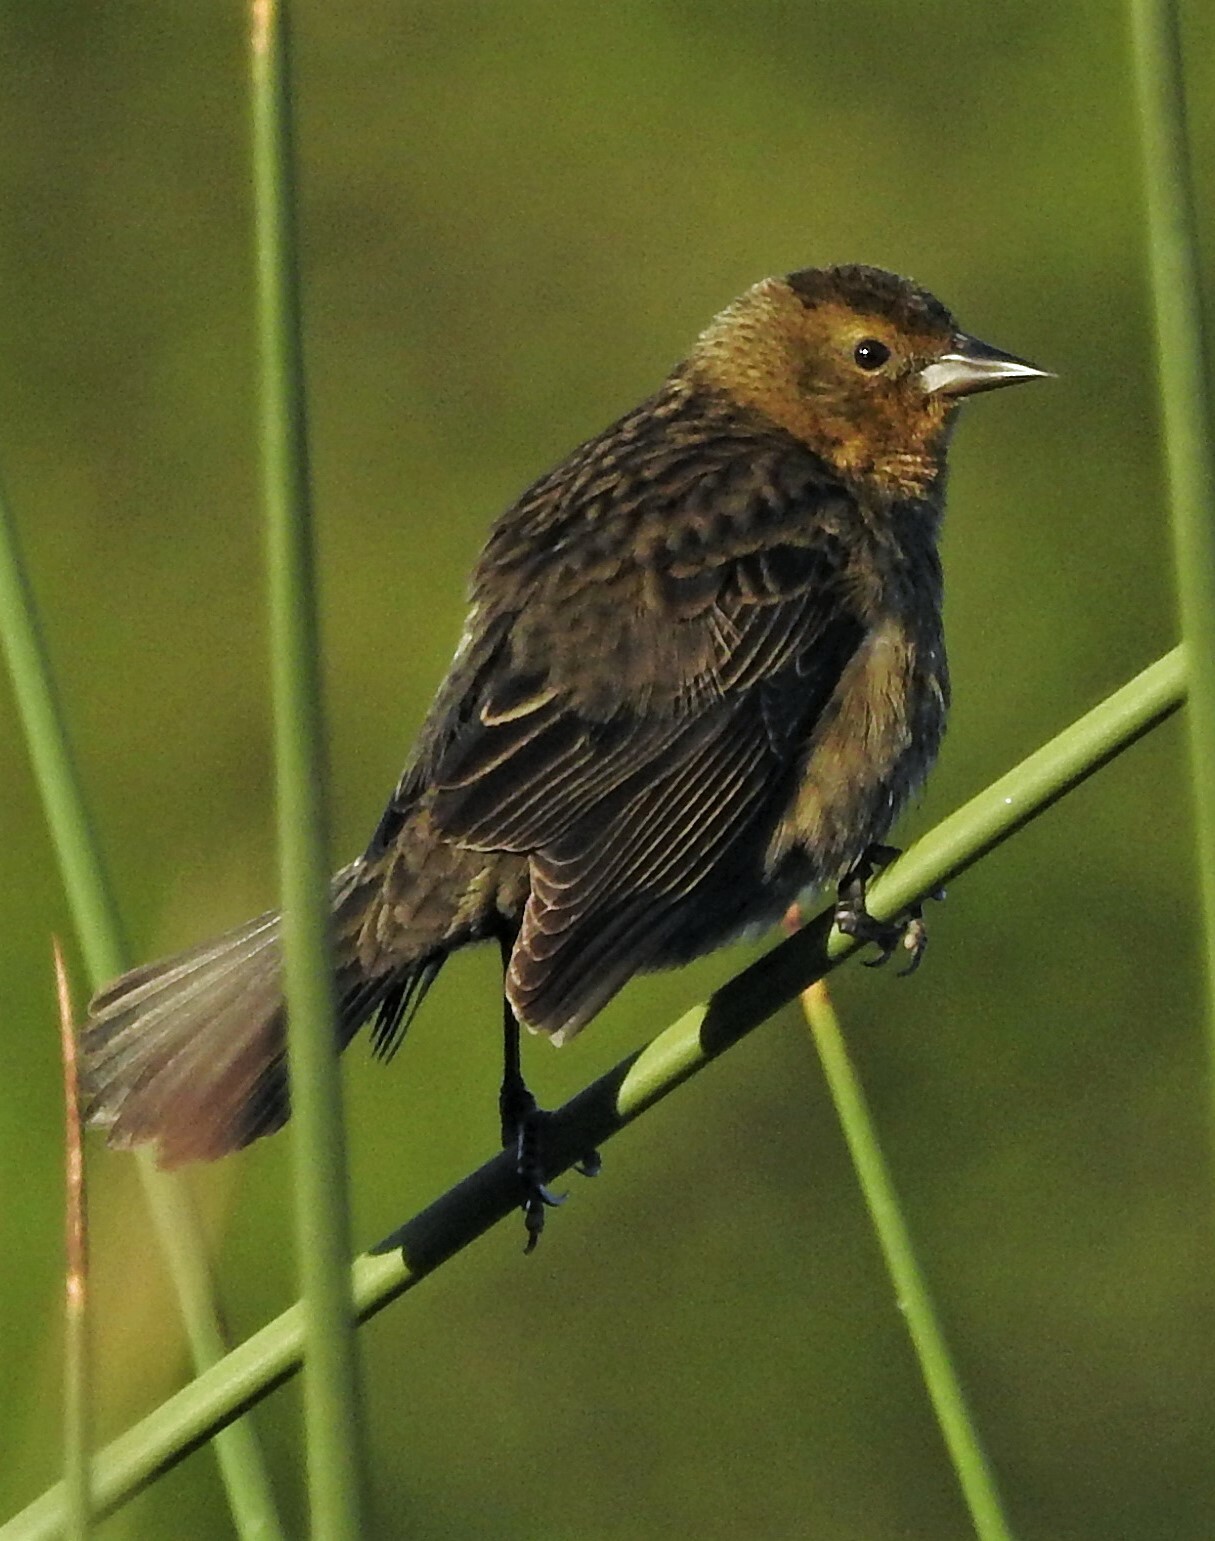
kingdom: Animalia
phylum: Chordata
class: Aves
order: Passeriformes
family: Icteridae
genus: Chrysomus
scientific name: Chrysomus ruficapillus
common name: Chestnut-capped blackbird
